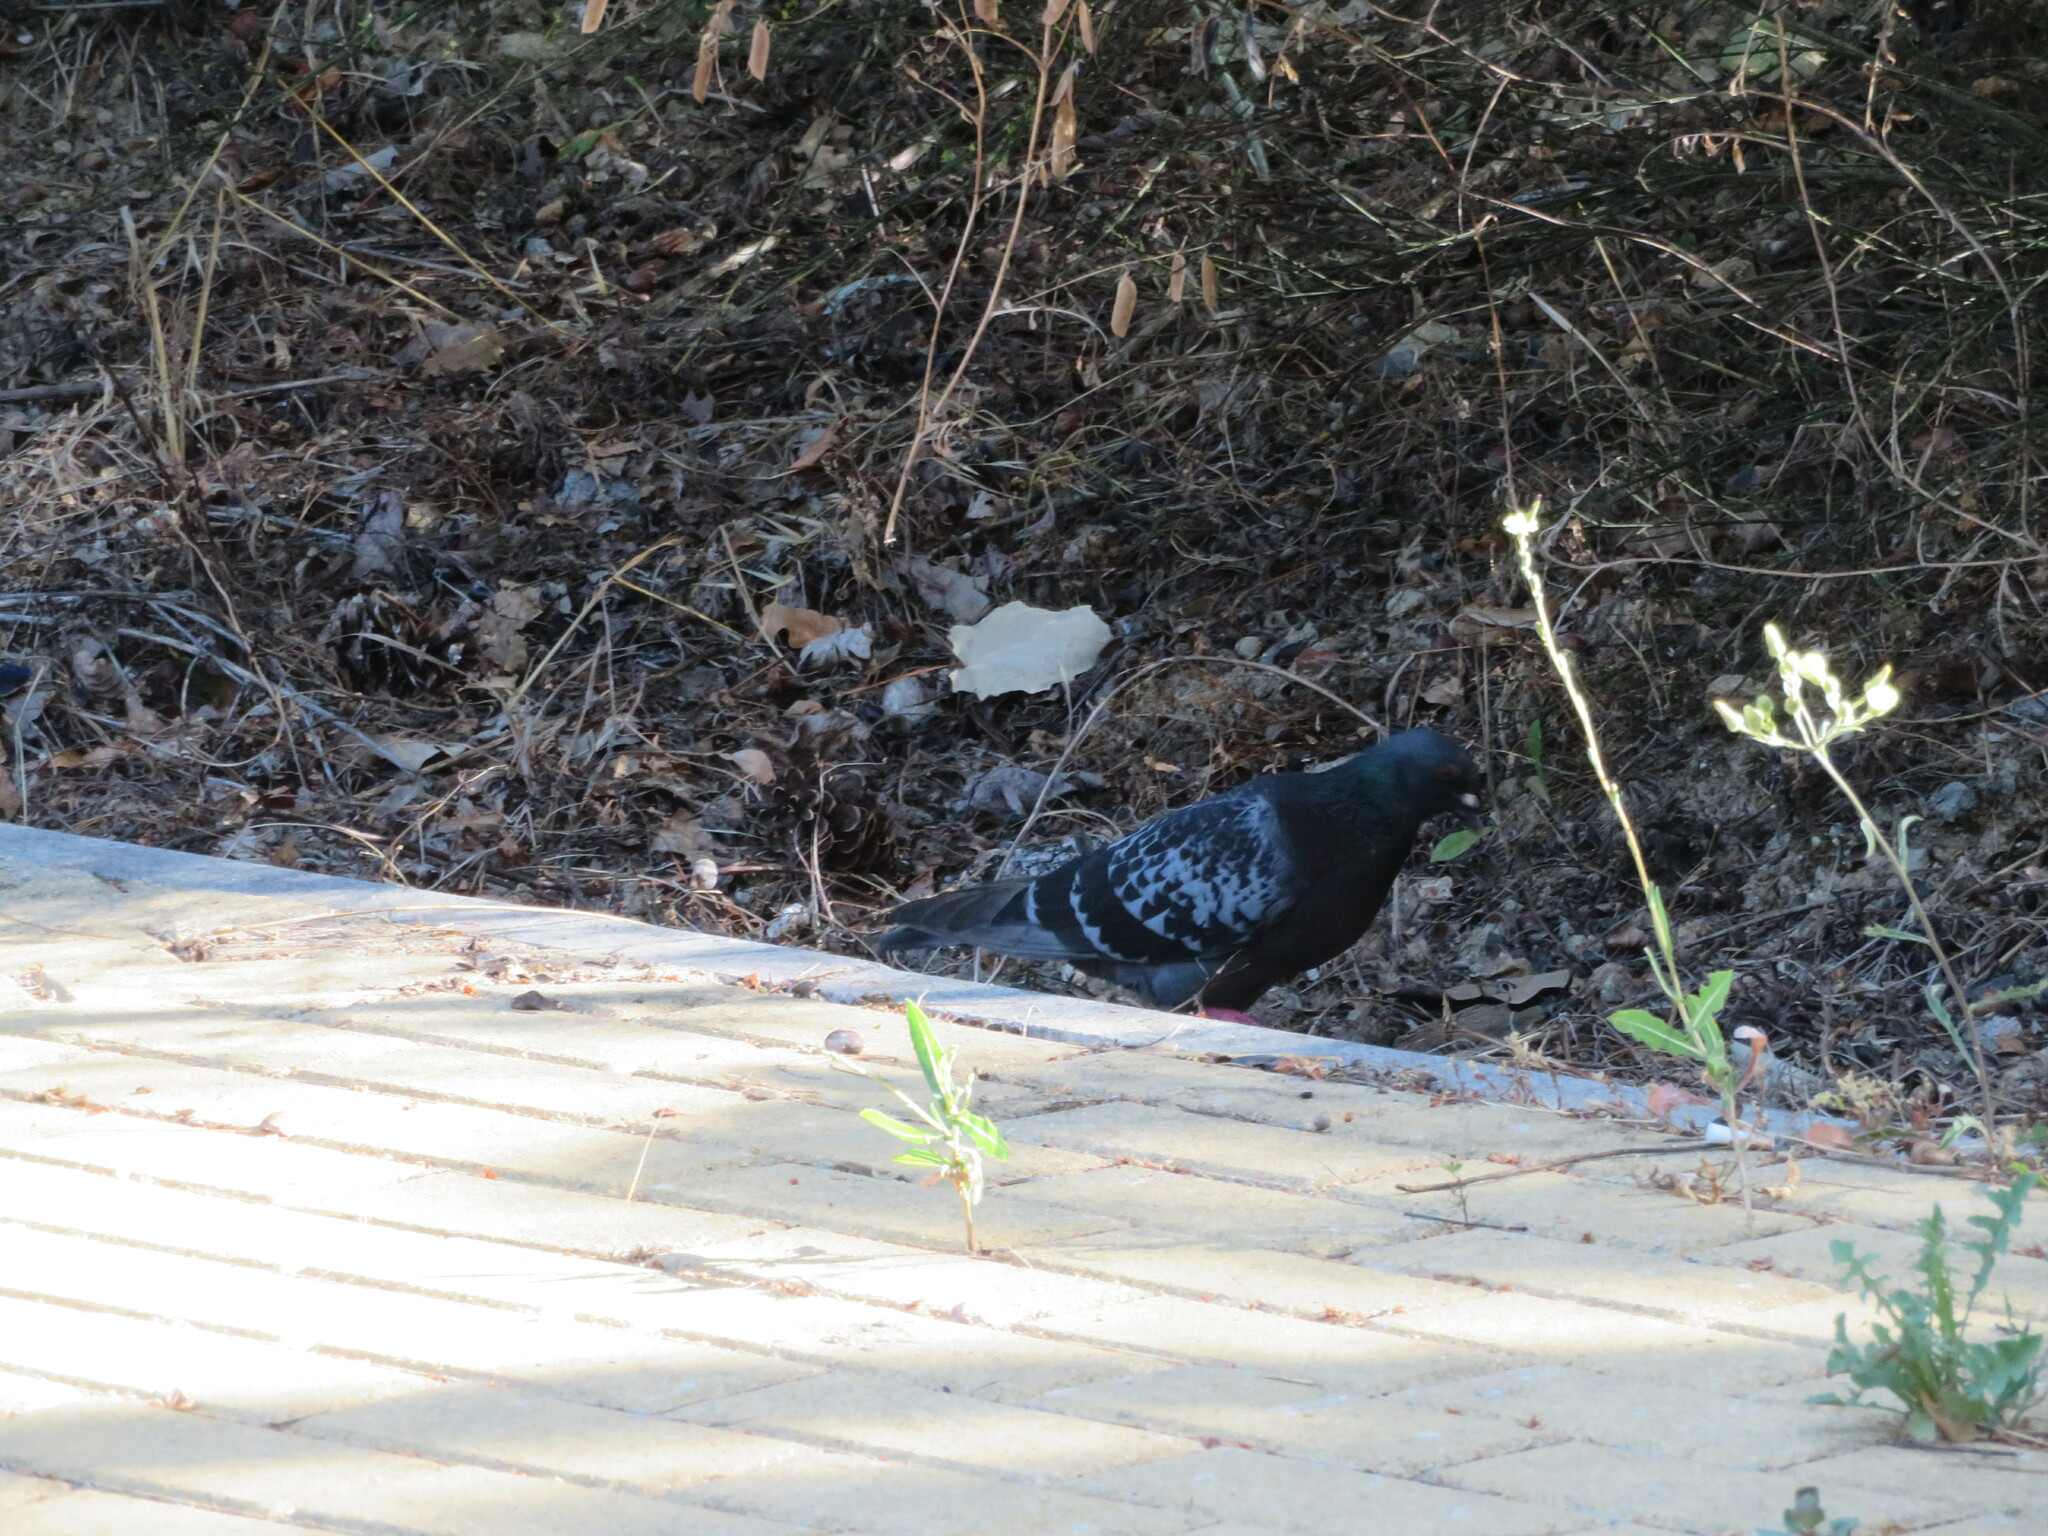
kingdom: Animalia
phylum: Chordata
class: Aves
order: Columbiformes
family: Columbidae
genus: Columba
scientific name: Columba livia
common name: Rock pigeon
